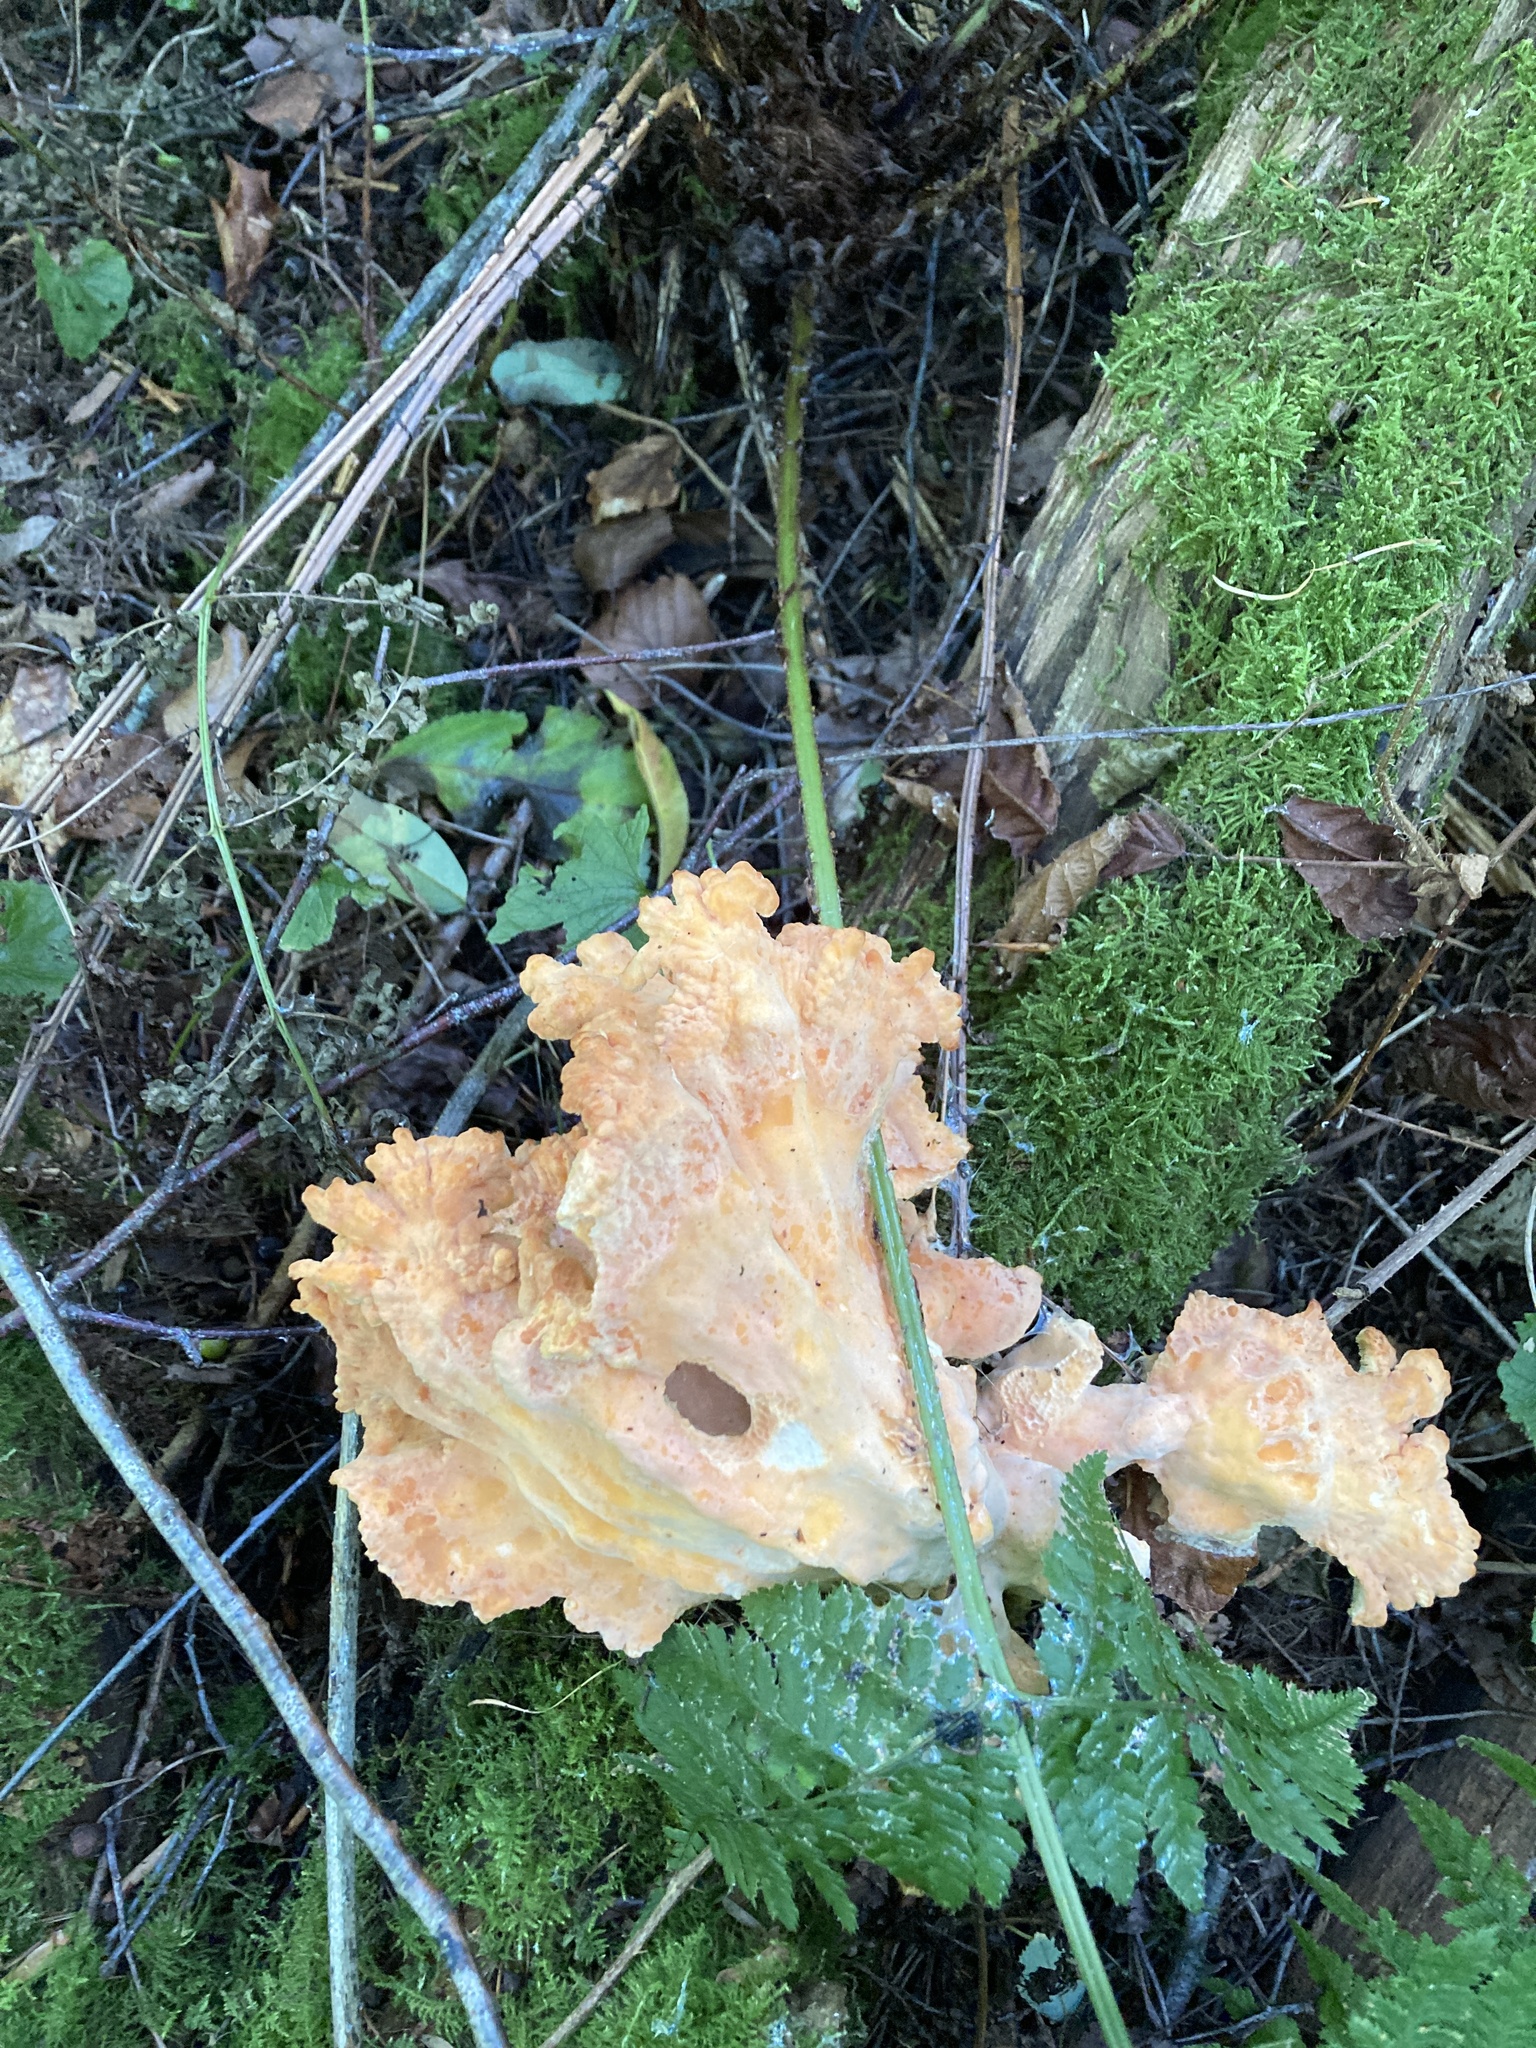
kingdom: Fungi
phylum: Basidiomycota
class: Agaricomycetes
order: Polyporales
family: Laetiporaceae
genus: Laetiporus
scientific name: Laetiporus sulphureus
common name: Chicken of the woods
